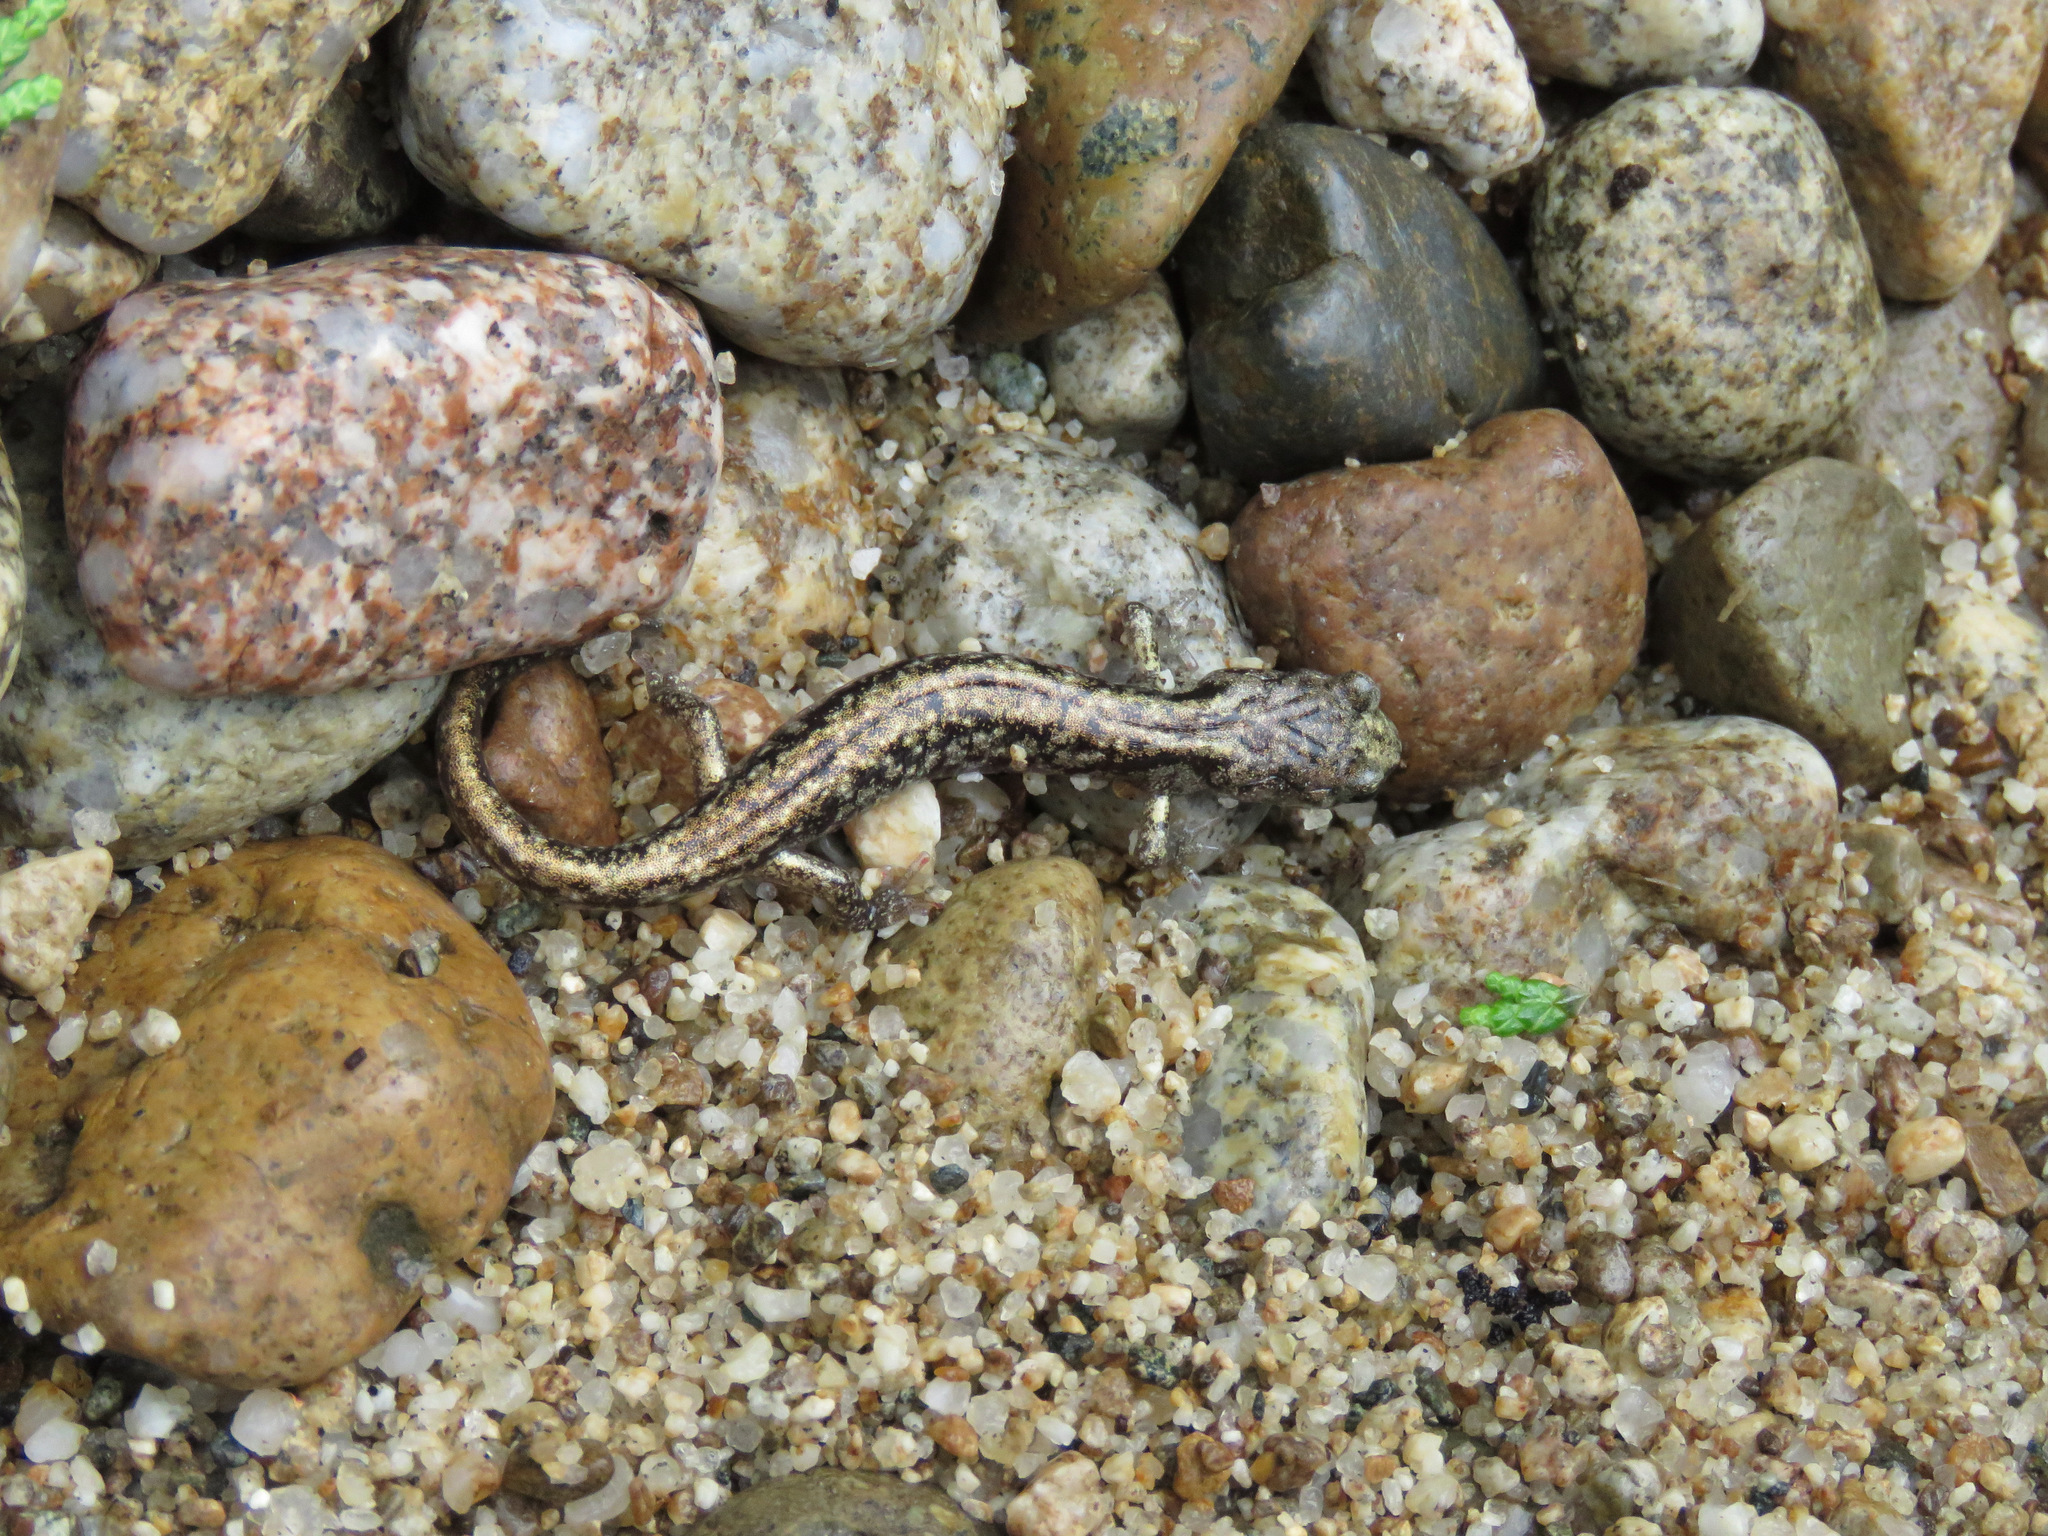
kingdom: Animalia
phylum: Chordata
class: Amphibia
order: Caudata
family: Plethodontidae
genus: Aneides
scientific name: Aneides vagrans
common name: Wandering salamander
